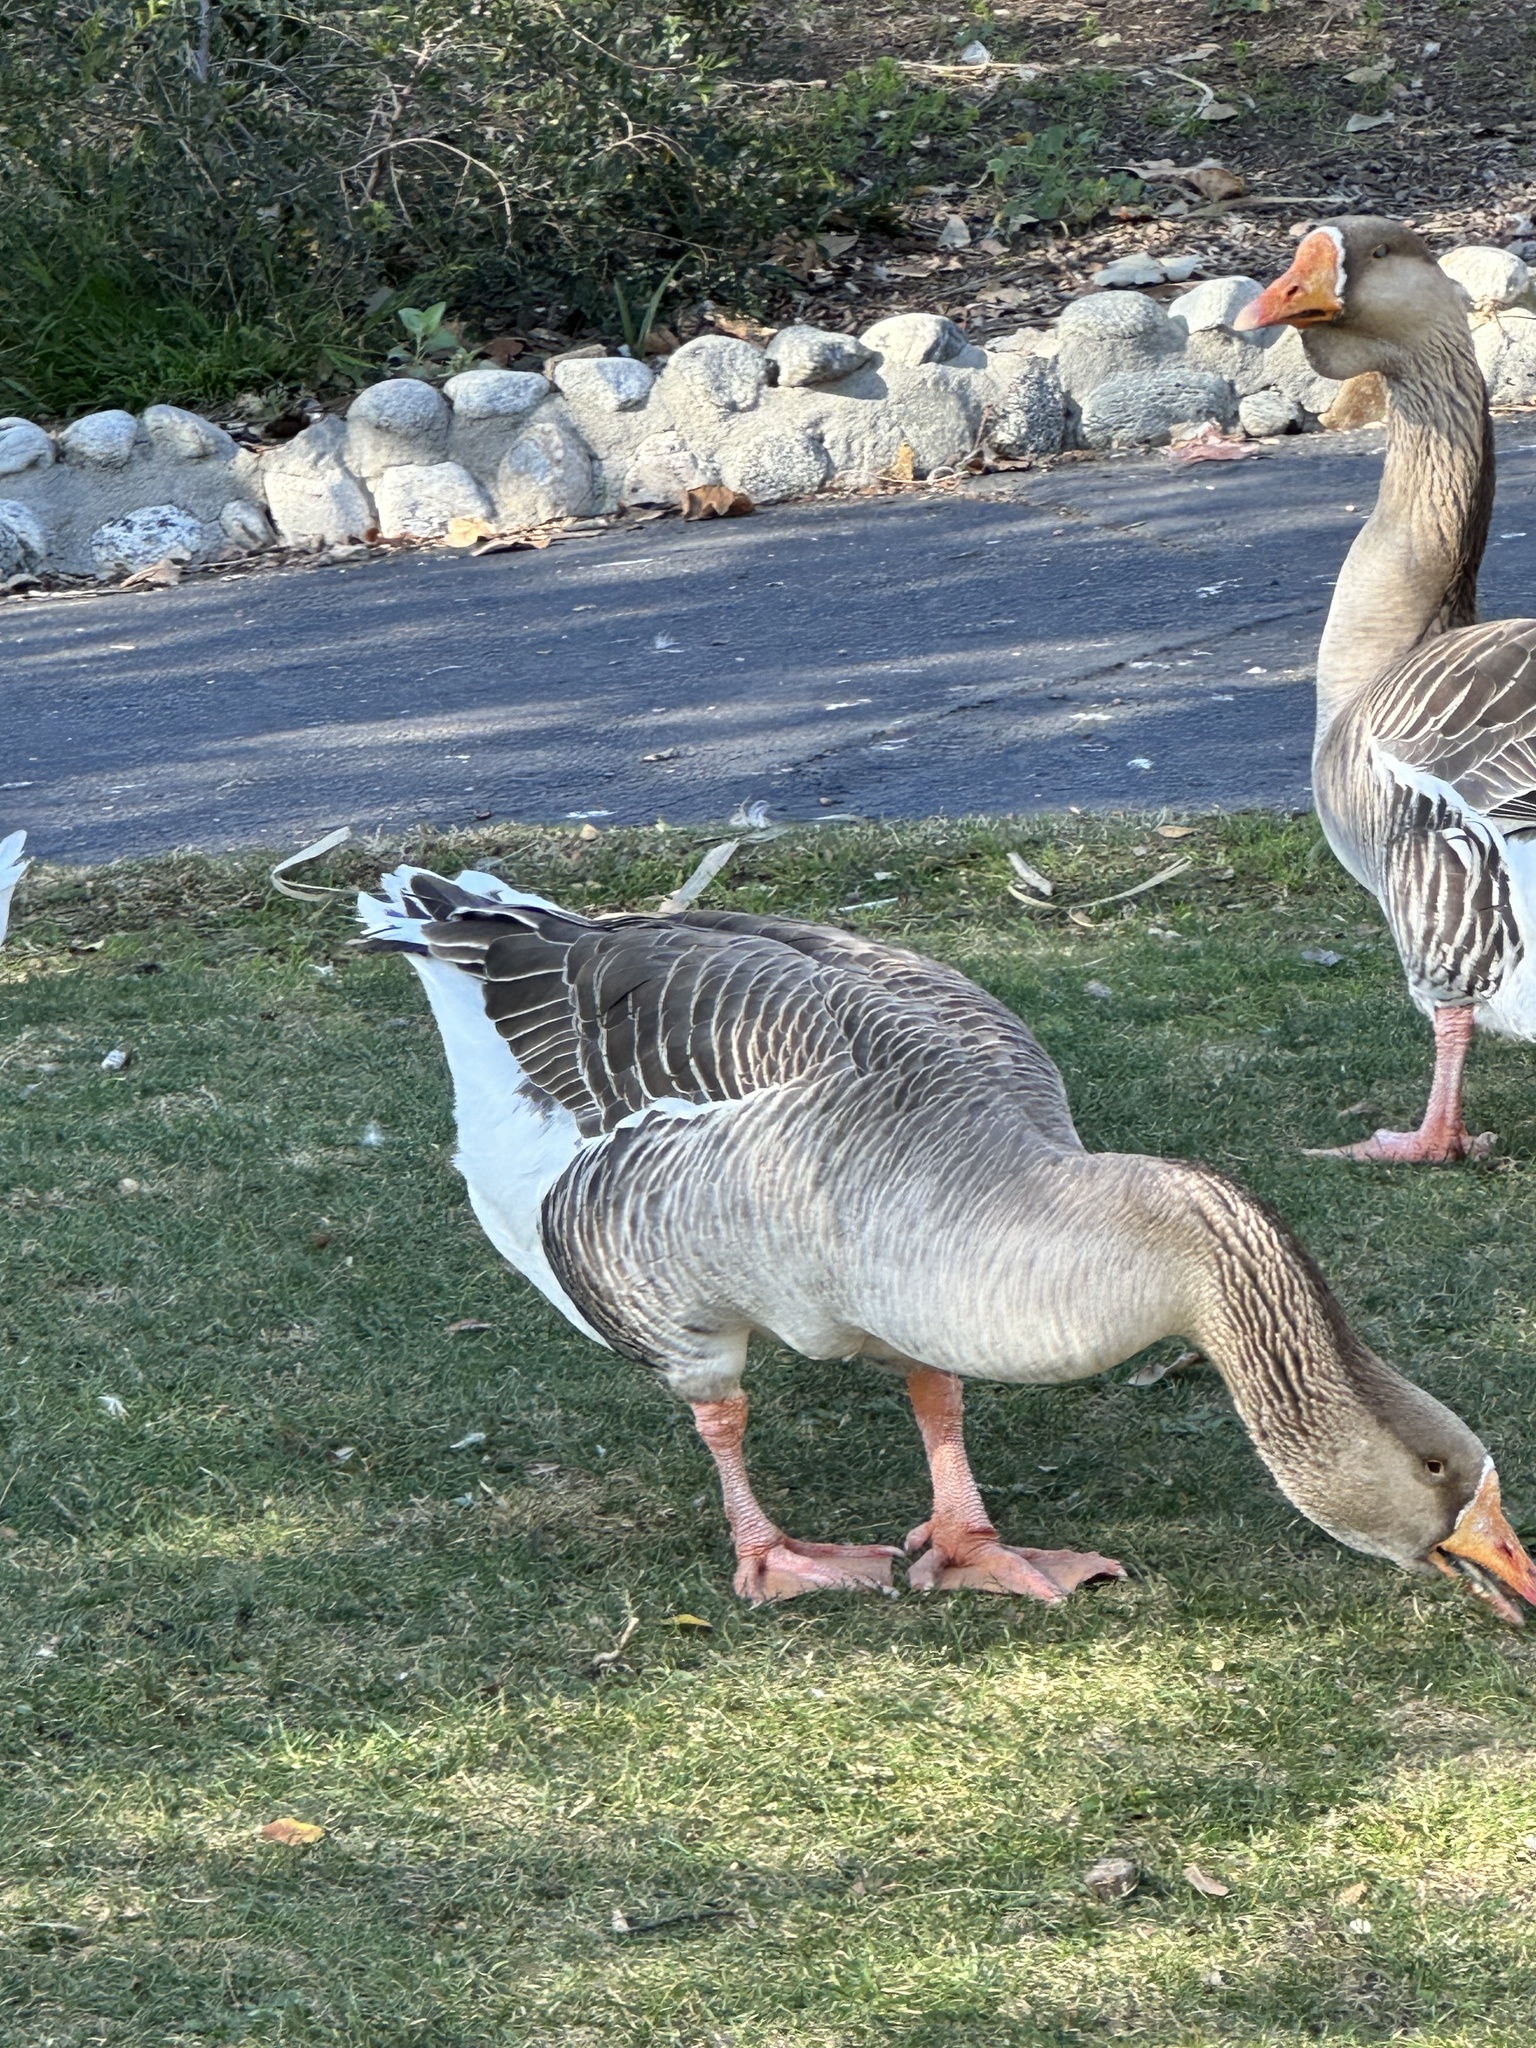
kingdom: Animalia
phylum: Chordata
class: Aves
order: Anseriformes
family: Anatidae
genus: Anser
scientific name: Anser
